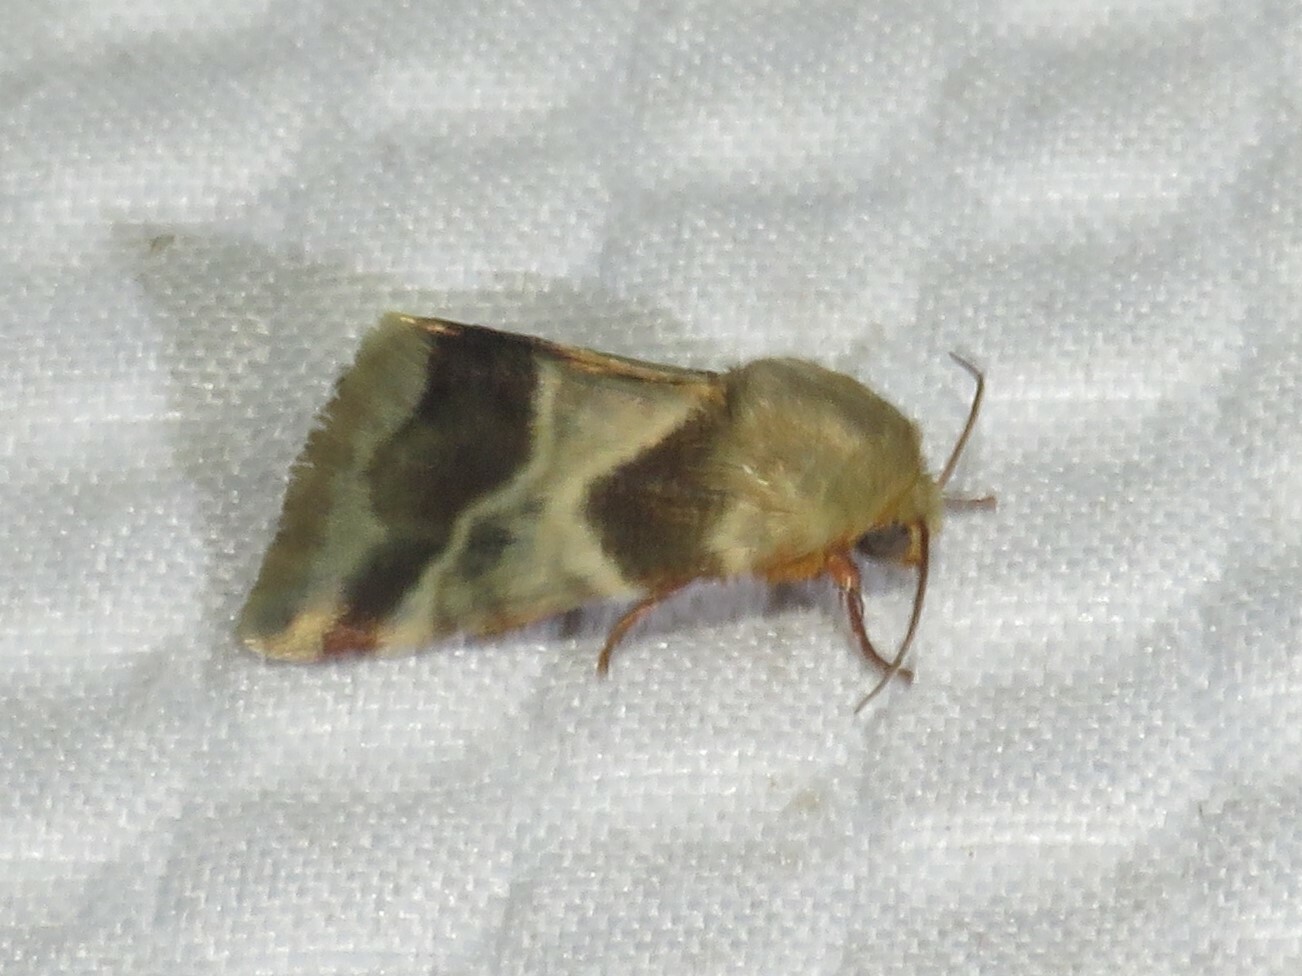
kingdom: Animalia
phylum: Arthropoda
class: Insecta
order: Lepidoptera
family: Noctuidae
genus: Schinia
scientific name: Schinia lynx
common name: Lynx flower moth
